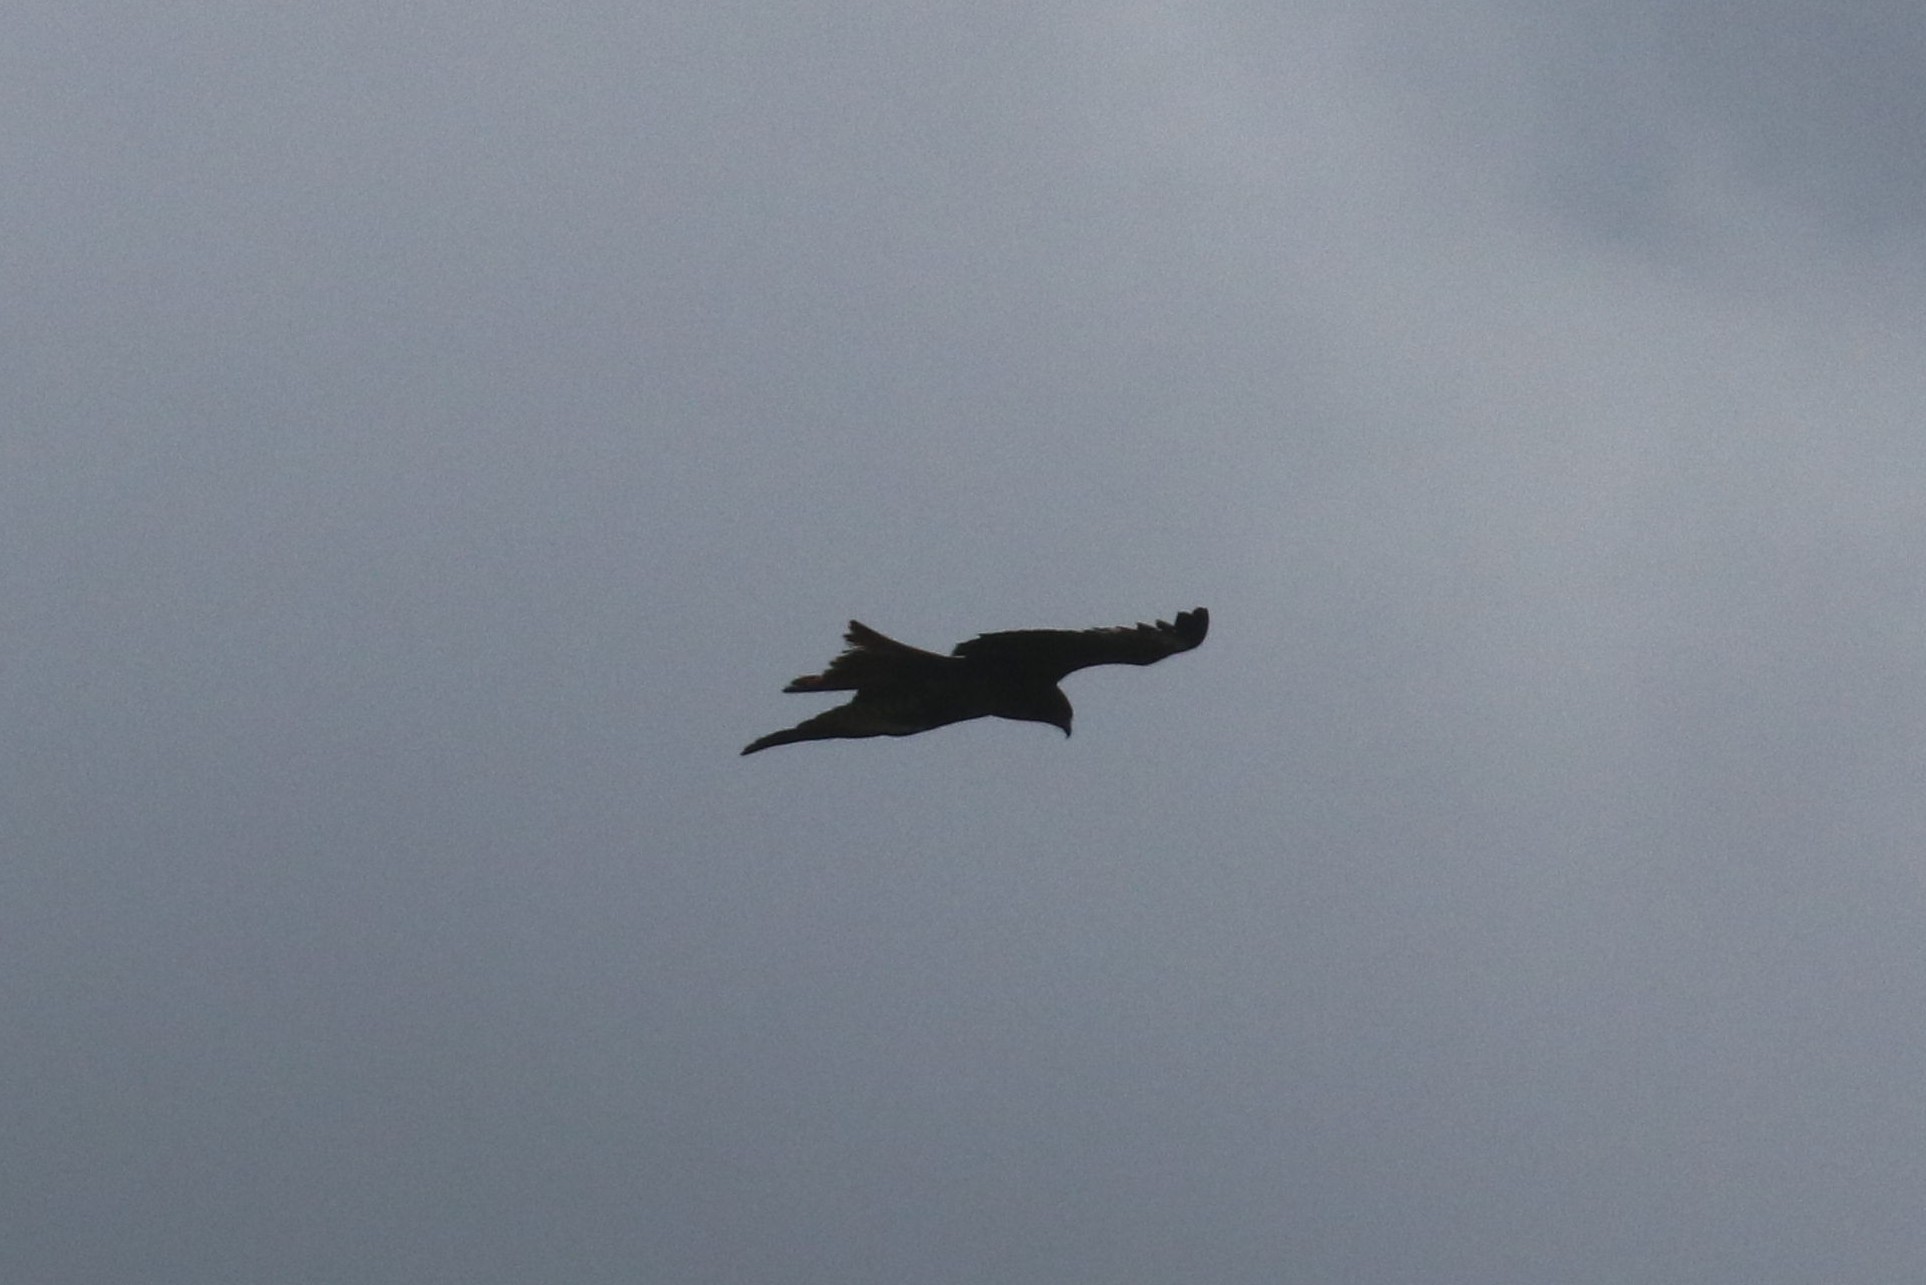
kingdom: Animalia
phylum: Chordata
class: Aves
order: Accipitriformes
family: Accipitridae
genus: Milvus
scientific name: Milvus migrans
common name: Black kite
